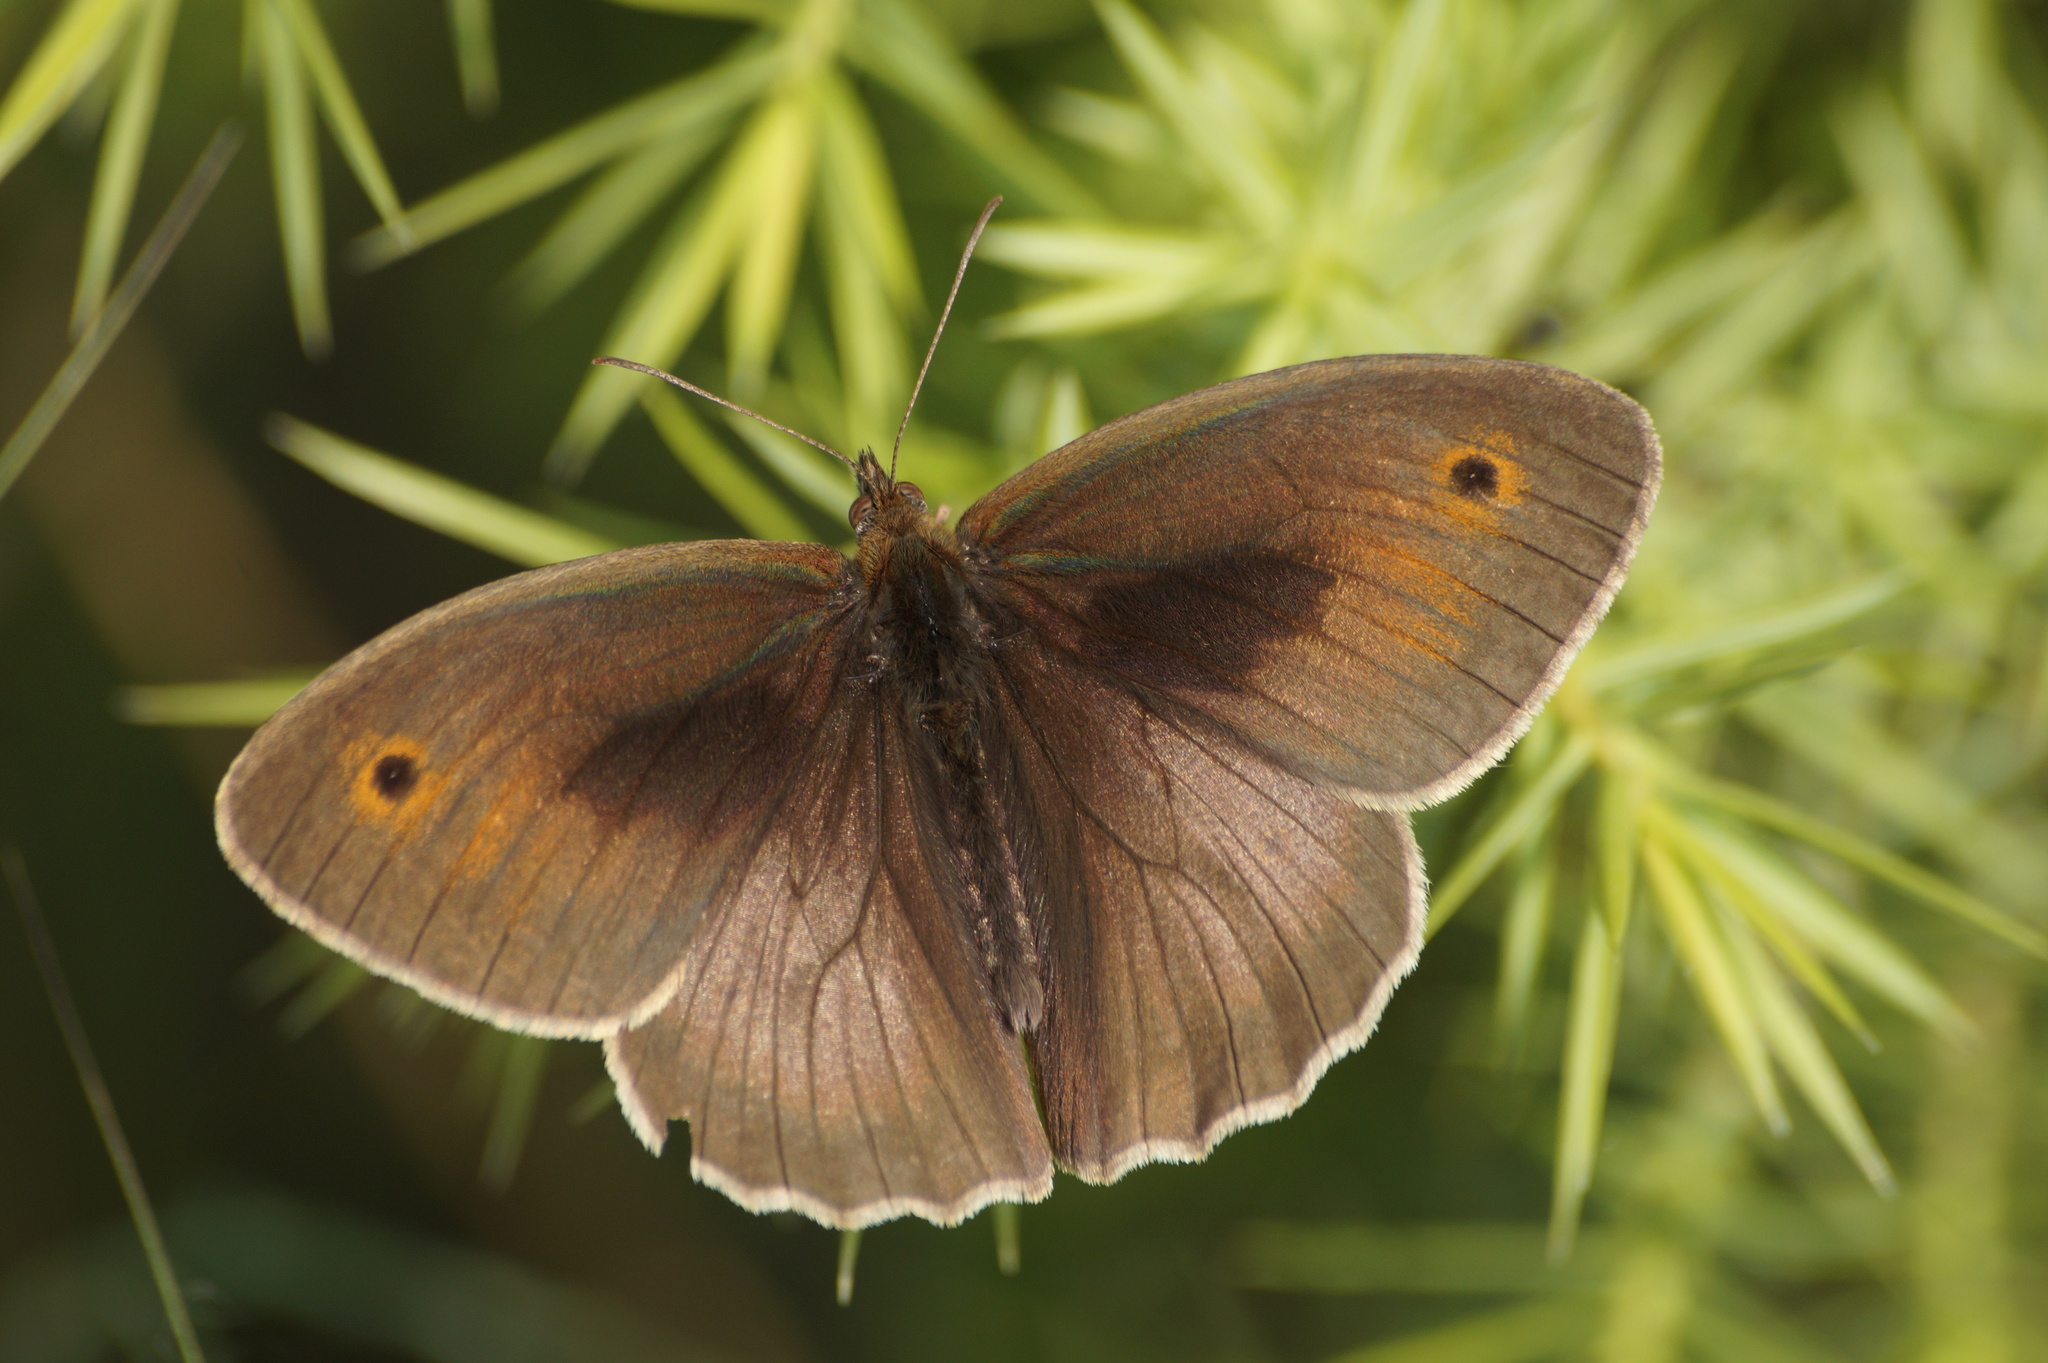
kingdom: Animalia
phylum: Arthropoda
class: Insecta
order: Lepidoptera
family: Nymphalidae
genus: Maniola
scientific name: Maniola jurtina
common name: Meadow brown
